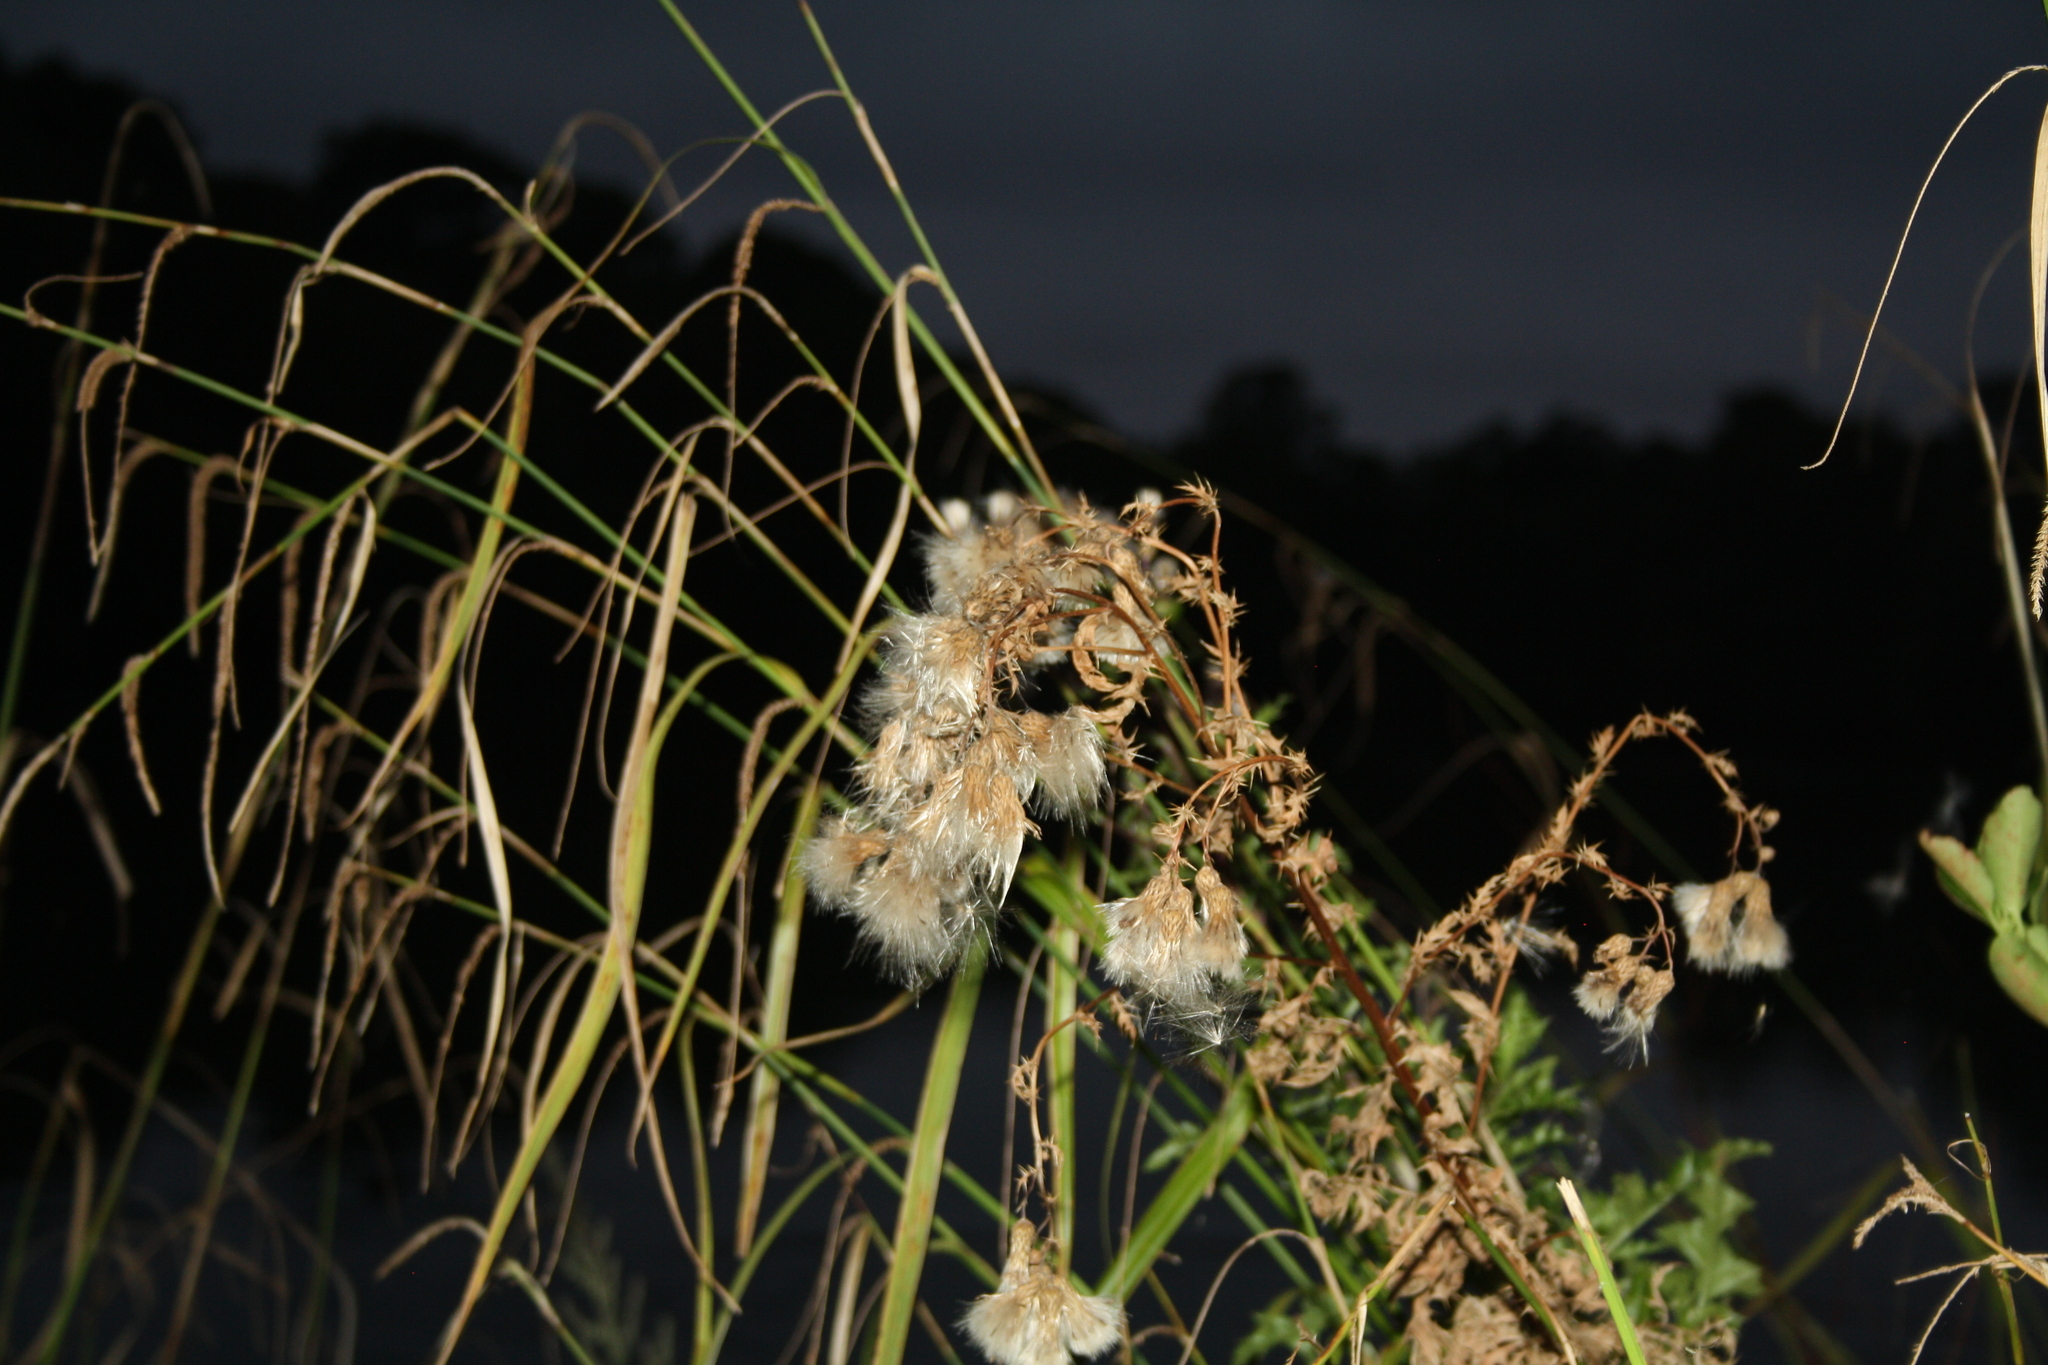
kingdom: Plantae
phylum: Tracheophyta
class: Magnoliopsida
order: Asterales
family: Asteraceae
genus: Cirsium
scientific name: Cirsium arvense
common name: Creeping thistle
